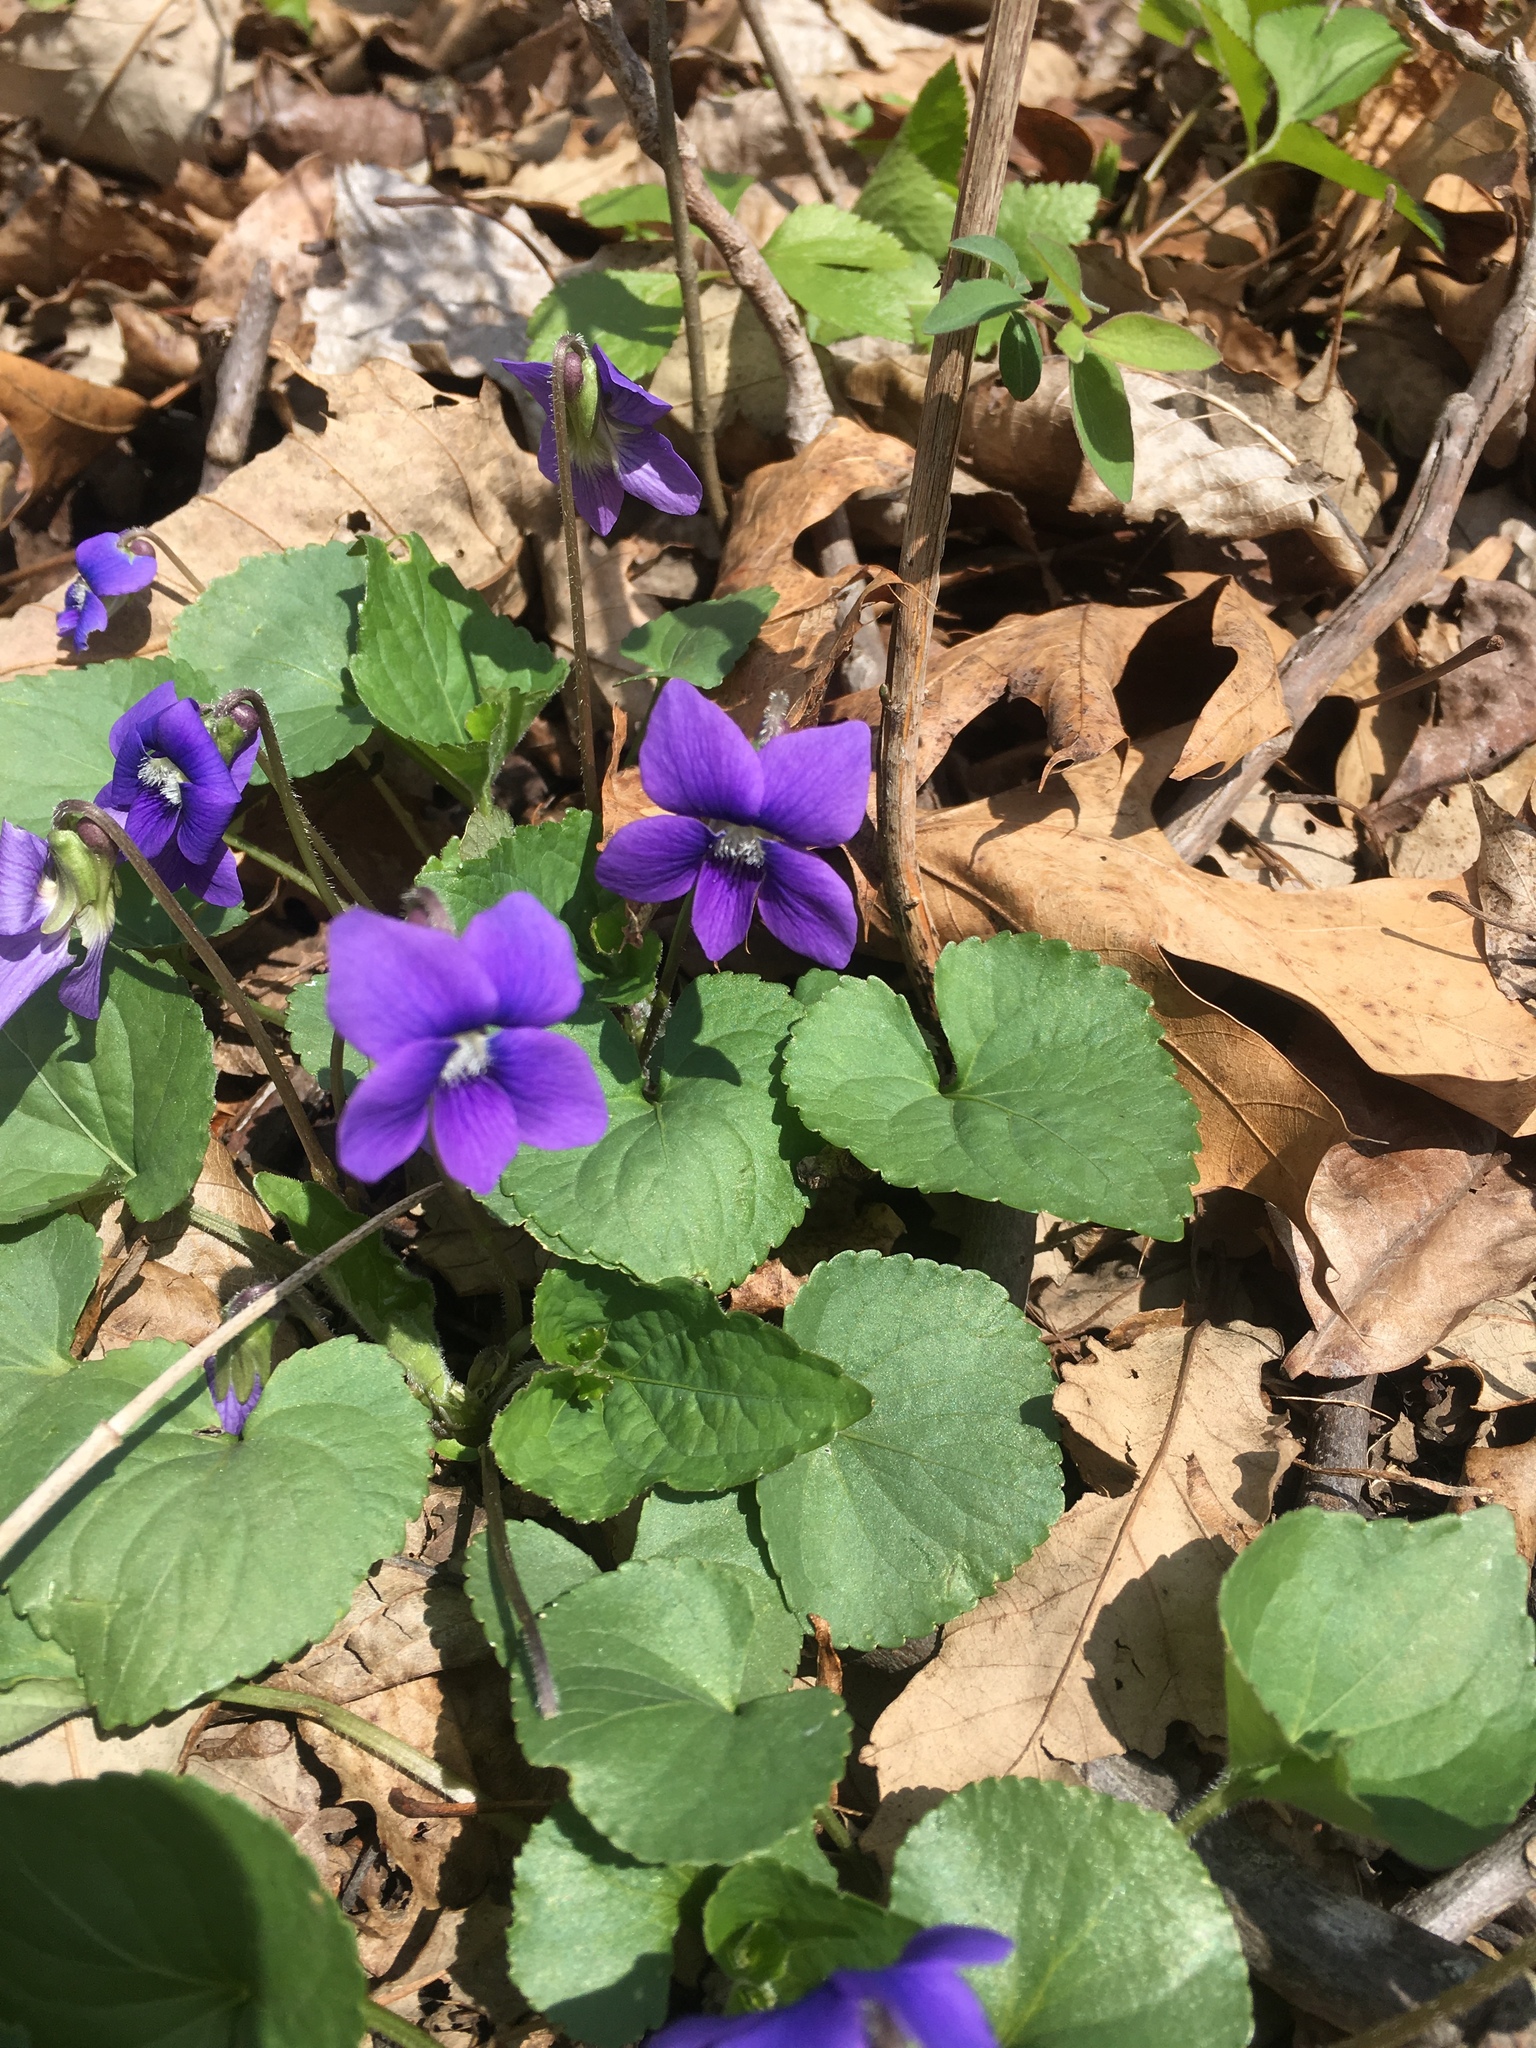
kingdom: Plantae
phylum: Tracheophyta
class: Magnoliopsida
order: Malpighiales
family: Violaceae
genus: Viola
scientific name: Viola sororia
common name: Dooryard violet
